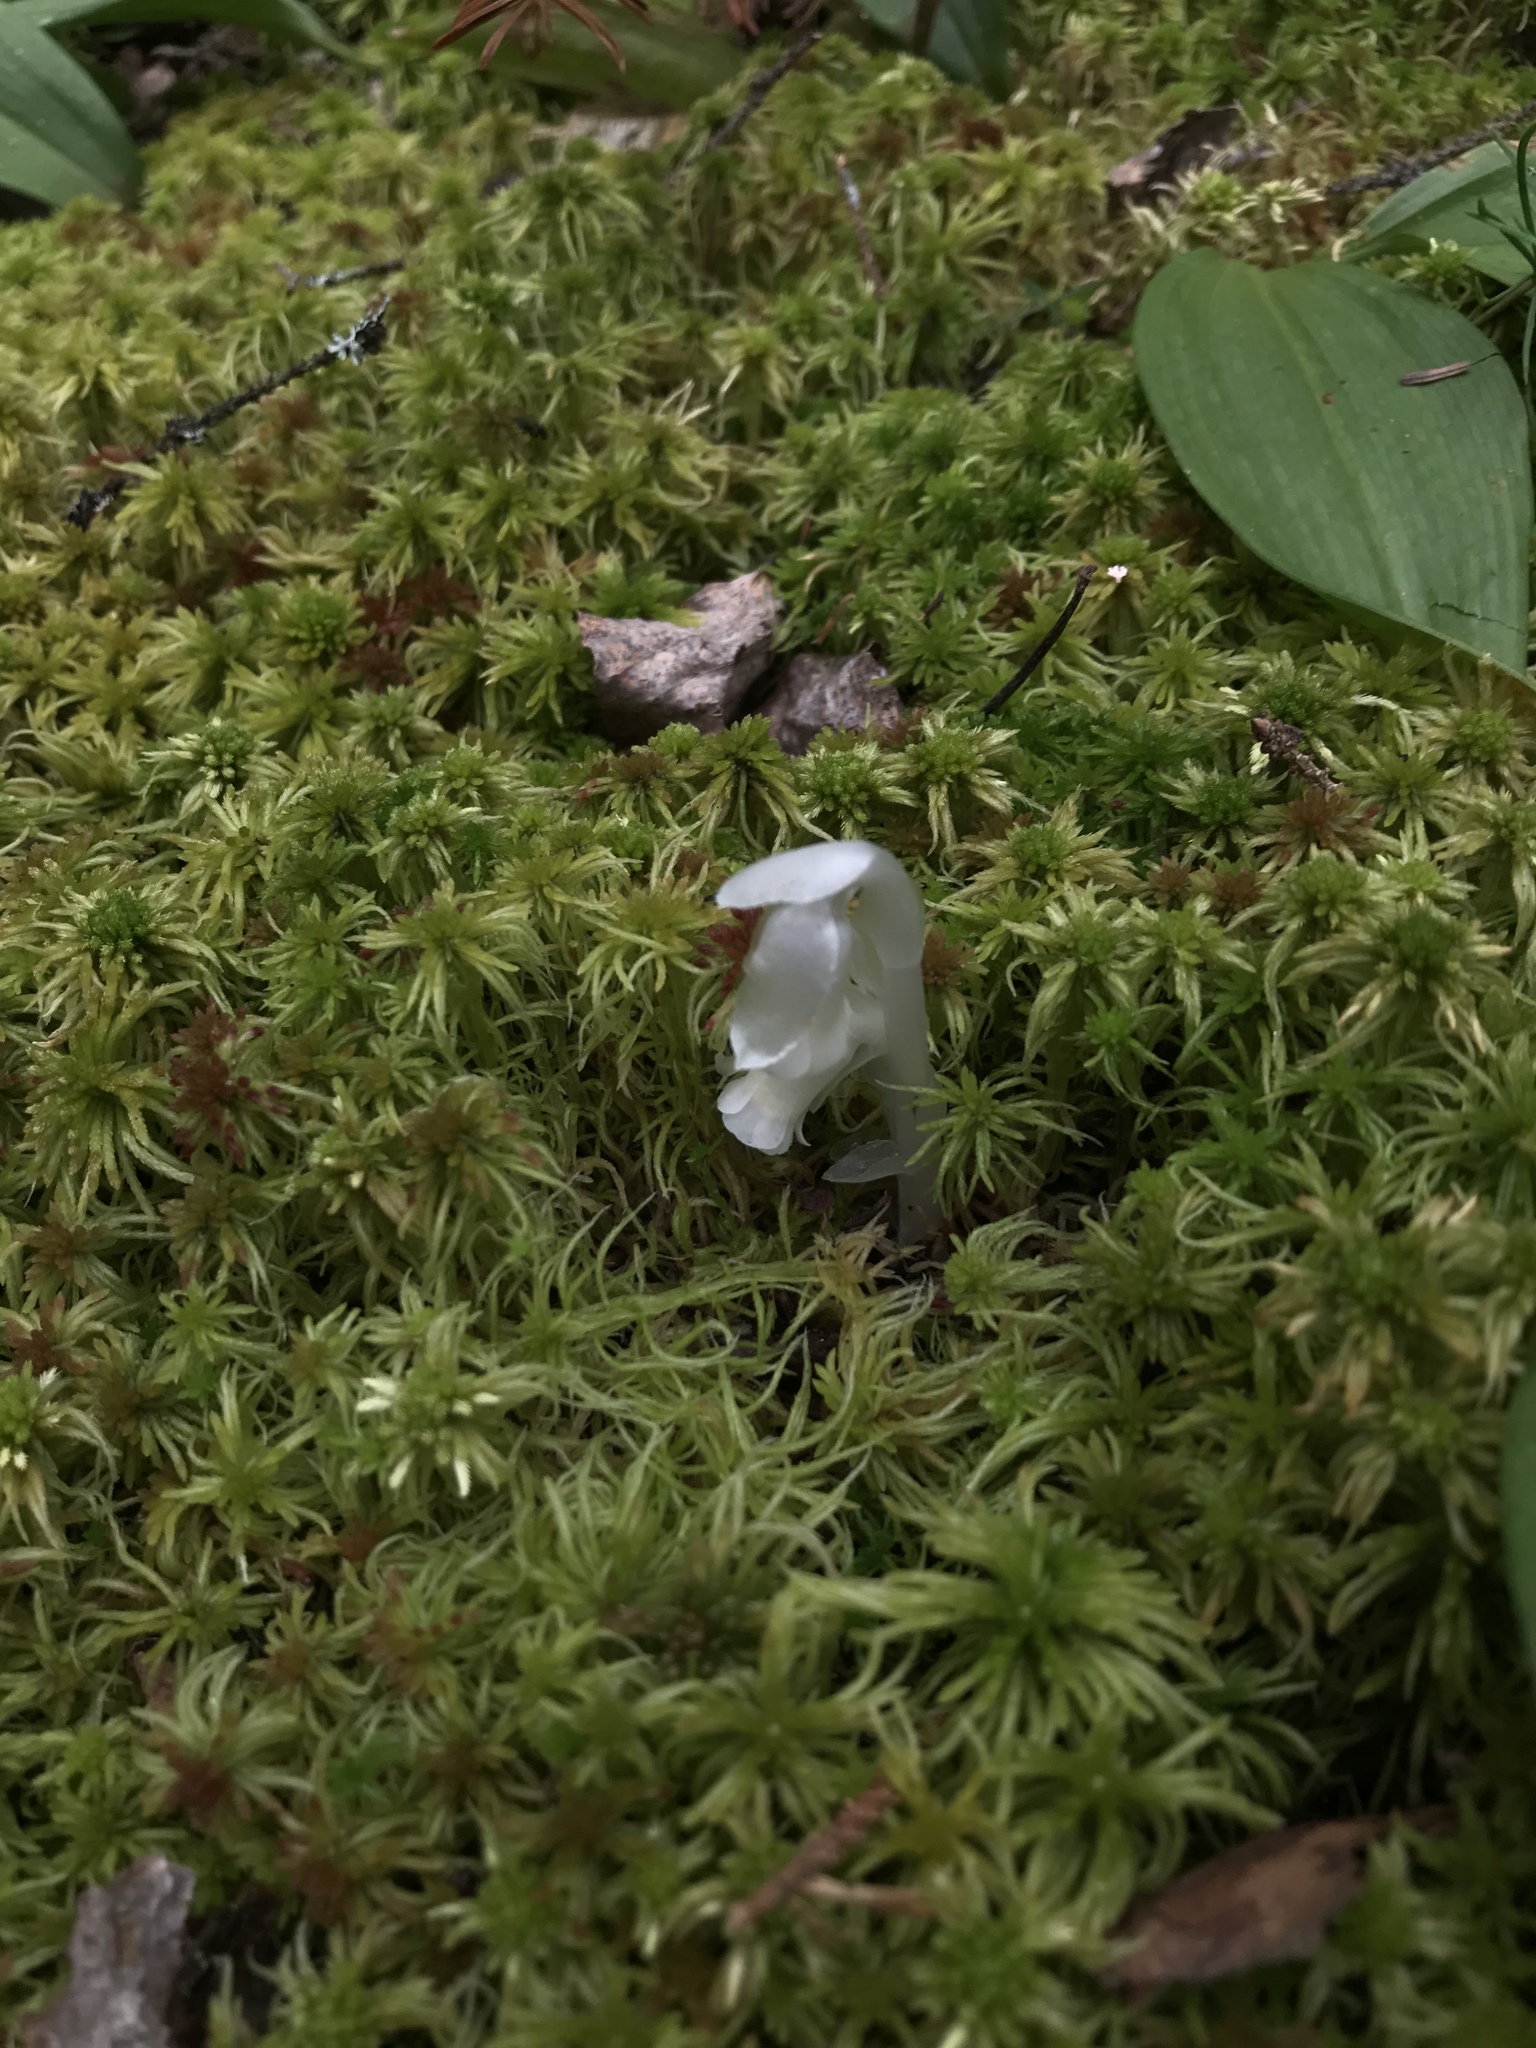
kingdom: Plantae
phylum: Tracheophyta
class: Magnoliopsida
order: Ericales
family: Ericaceae
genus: Monotropa
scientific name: Monotropa uniflora
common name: Convulsion root
